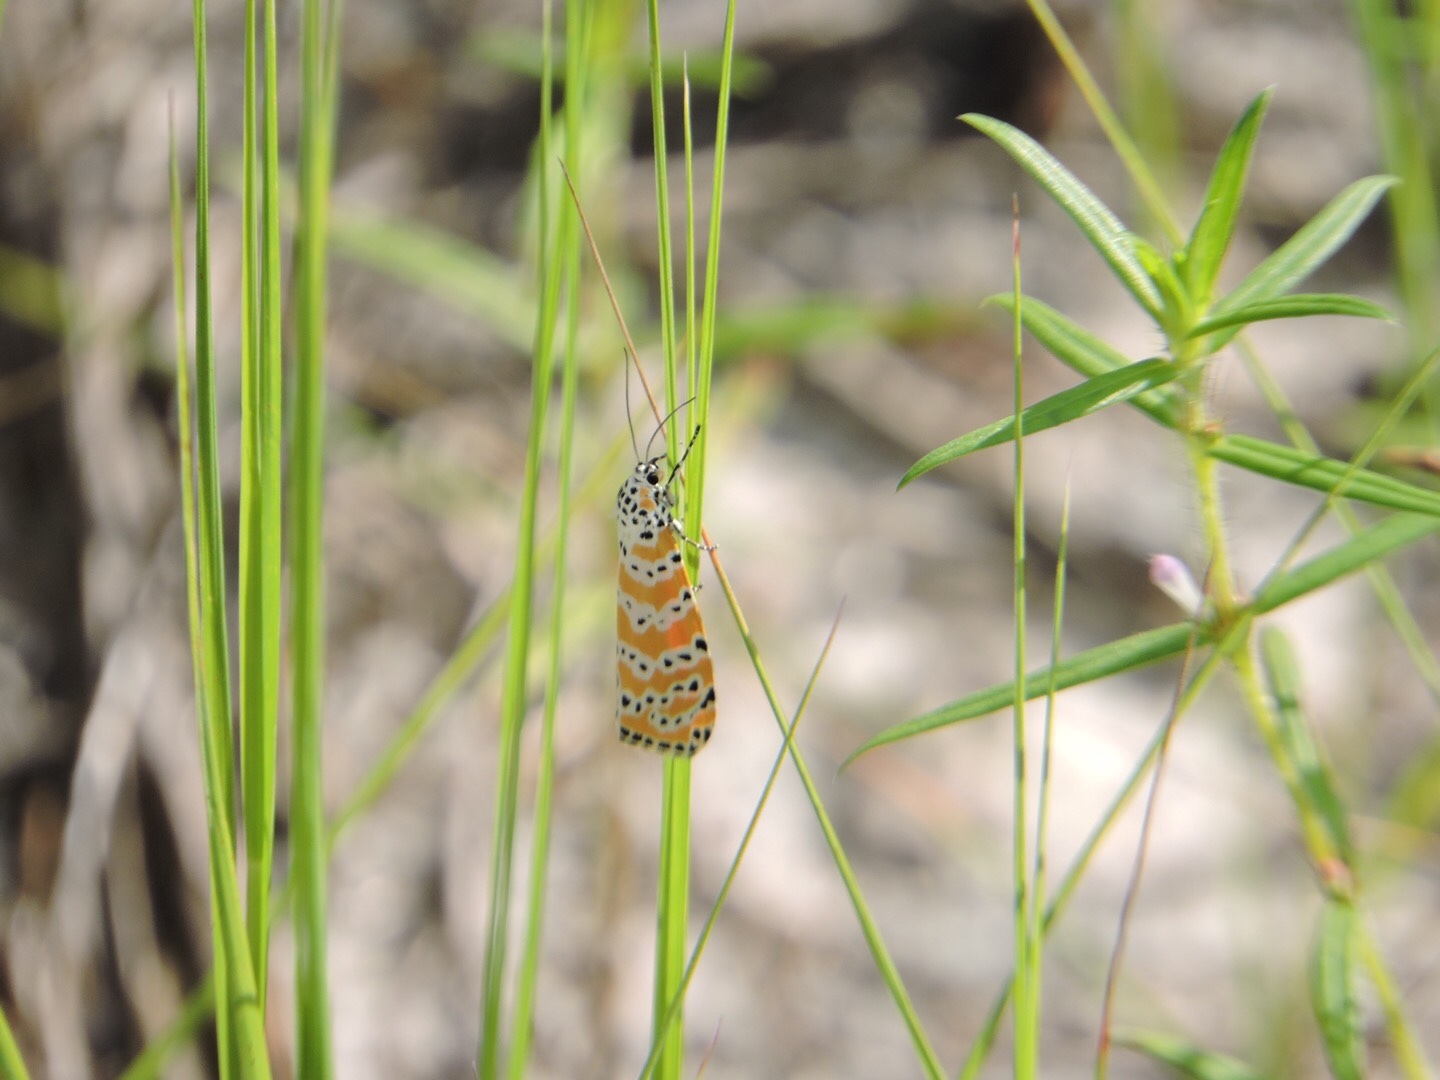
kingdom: Animalia
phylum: Arthropoda
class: Insecta
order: Lepidoptera
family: Erebidae
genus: Utetheisa
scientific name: Utetheisa ornatrix
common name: Beautiful utetheisa
